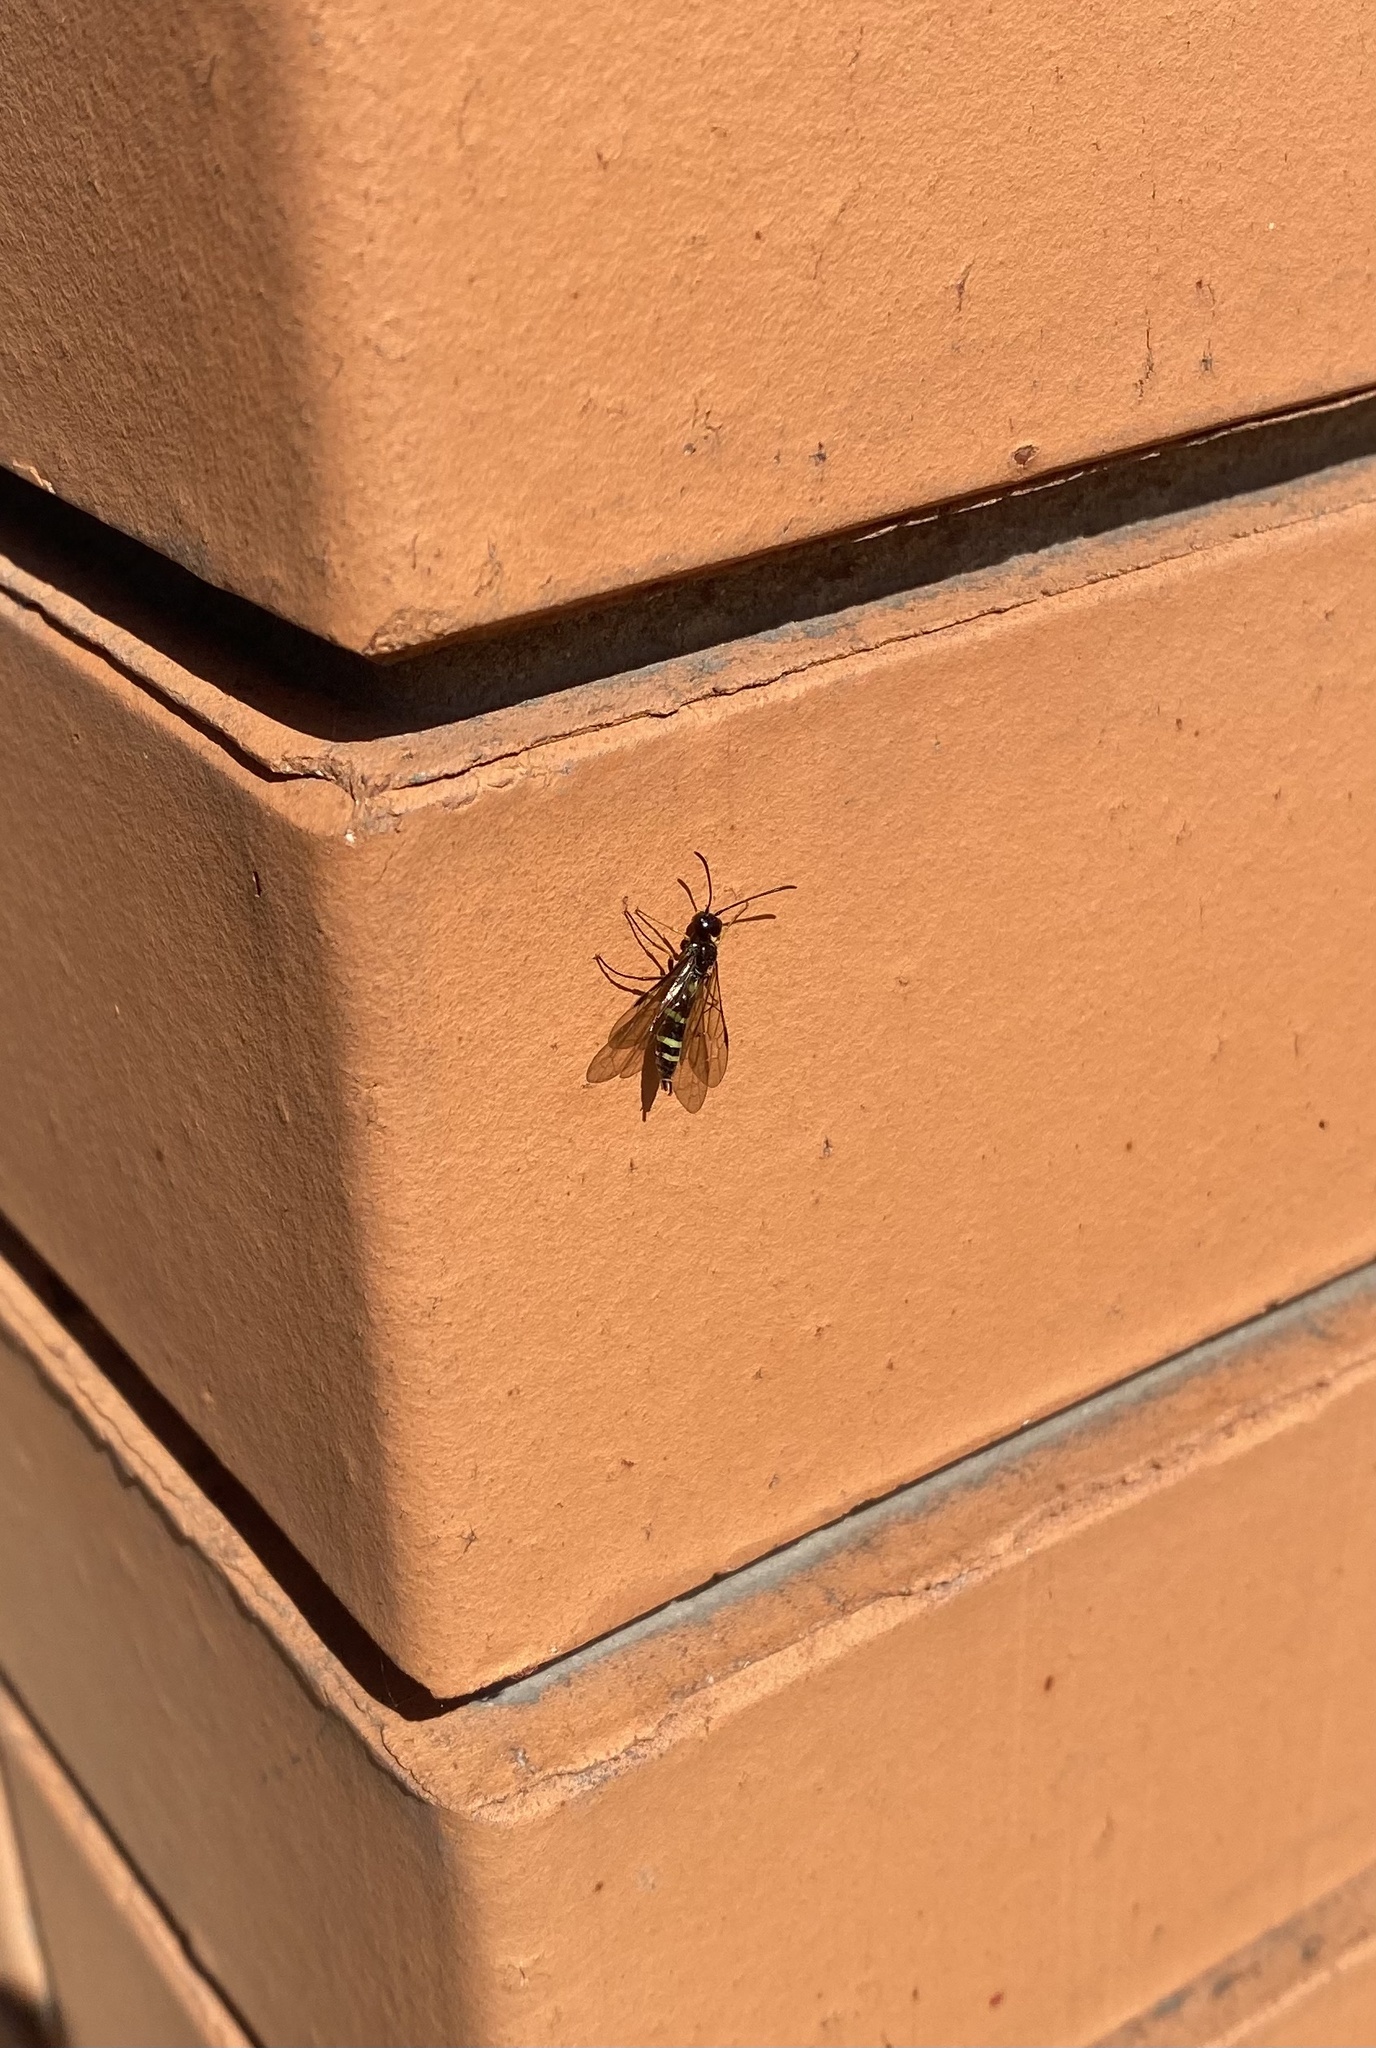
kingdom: Animalia
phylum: Arthropoda
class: Insecta
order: Hymenoptera
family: Cephidae
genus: Cephus
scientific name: Cephus pygmeus
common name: Wasp
